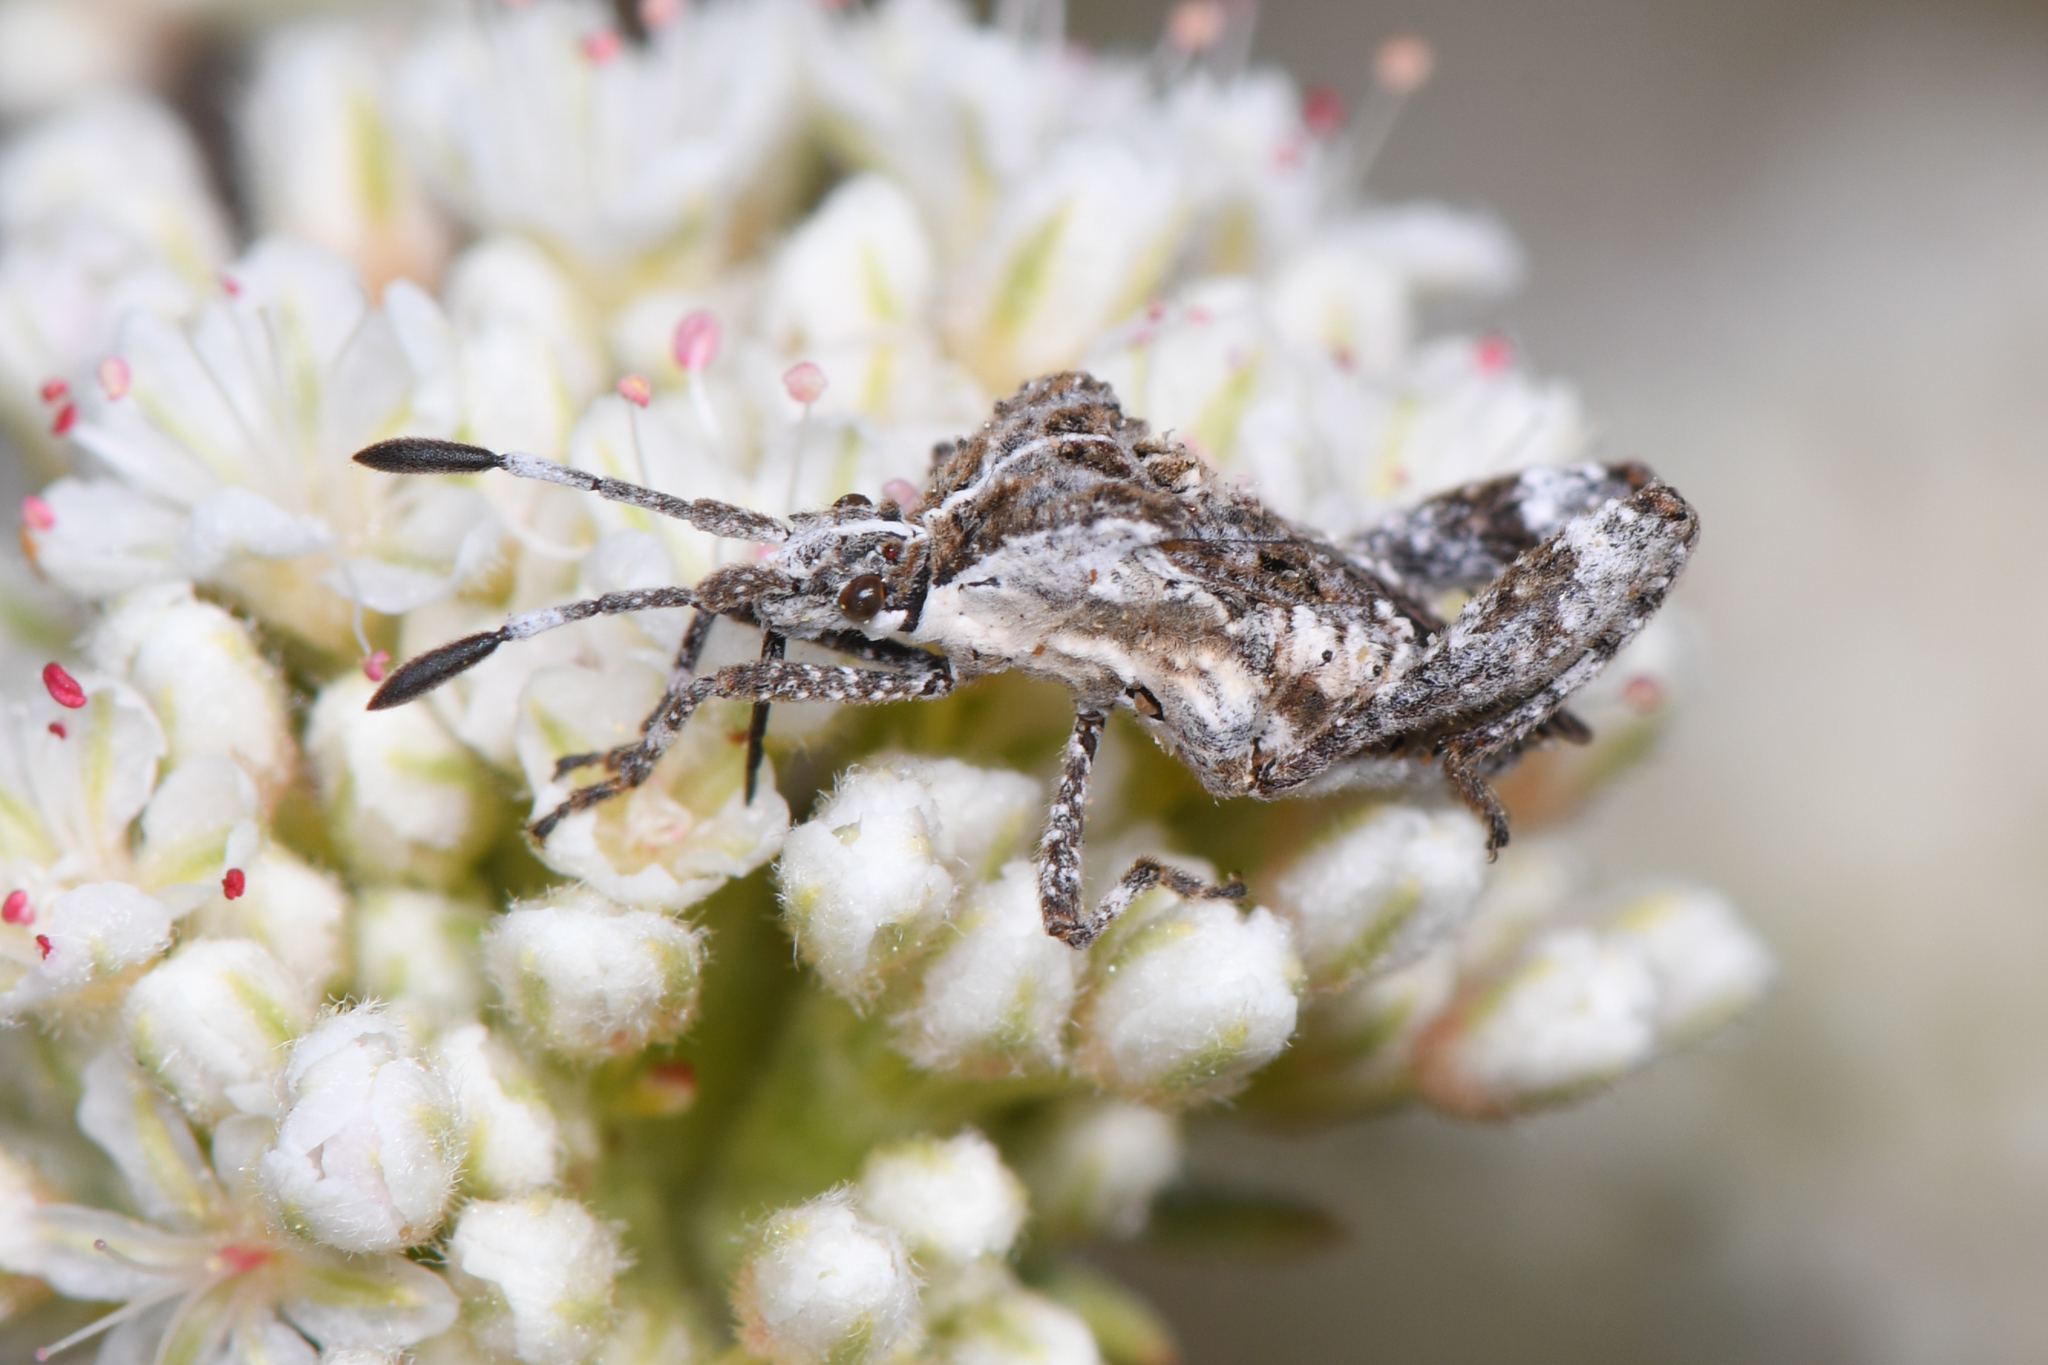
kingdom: Animalia
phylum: Arthropoda
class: Insecta
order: Hemiptera
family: Coreidae
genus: Merocoris
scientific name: Merocoris curtatus
